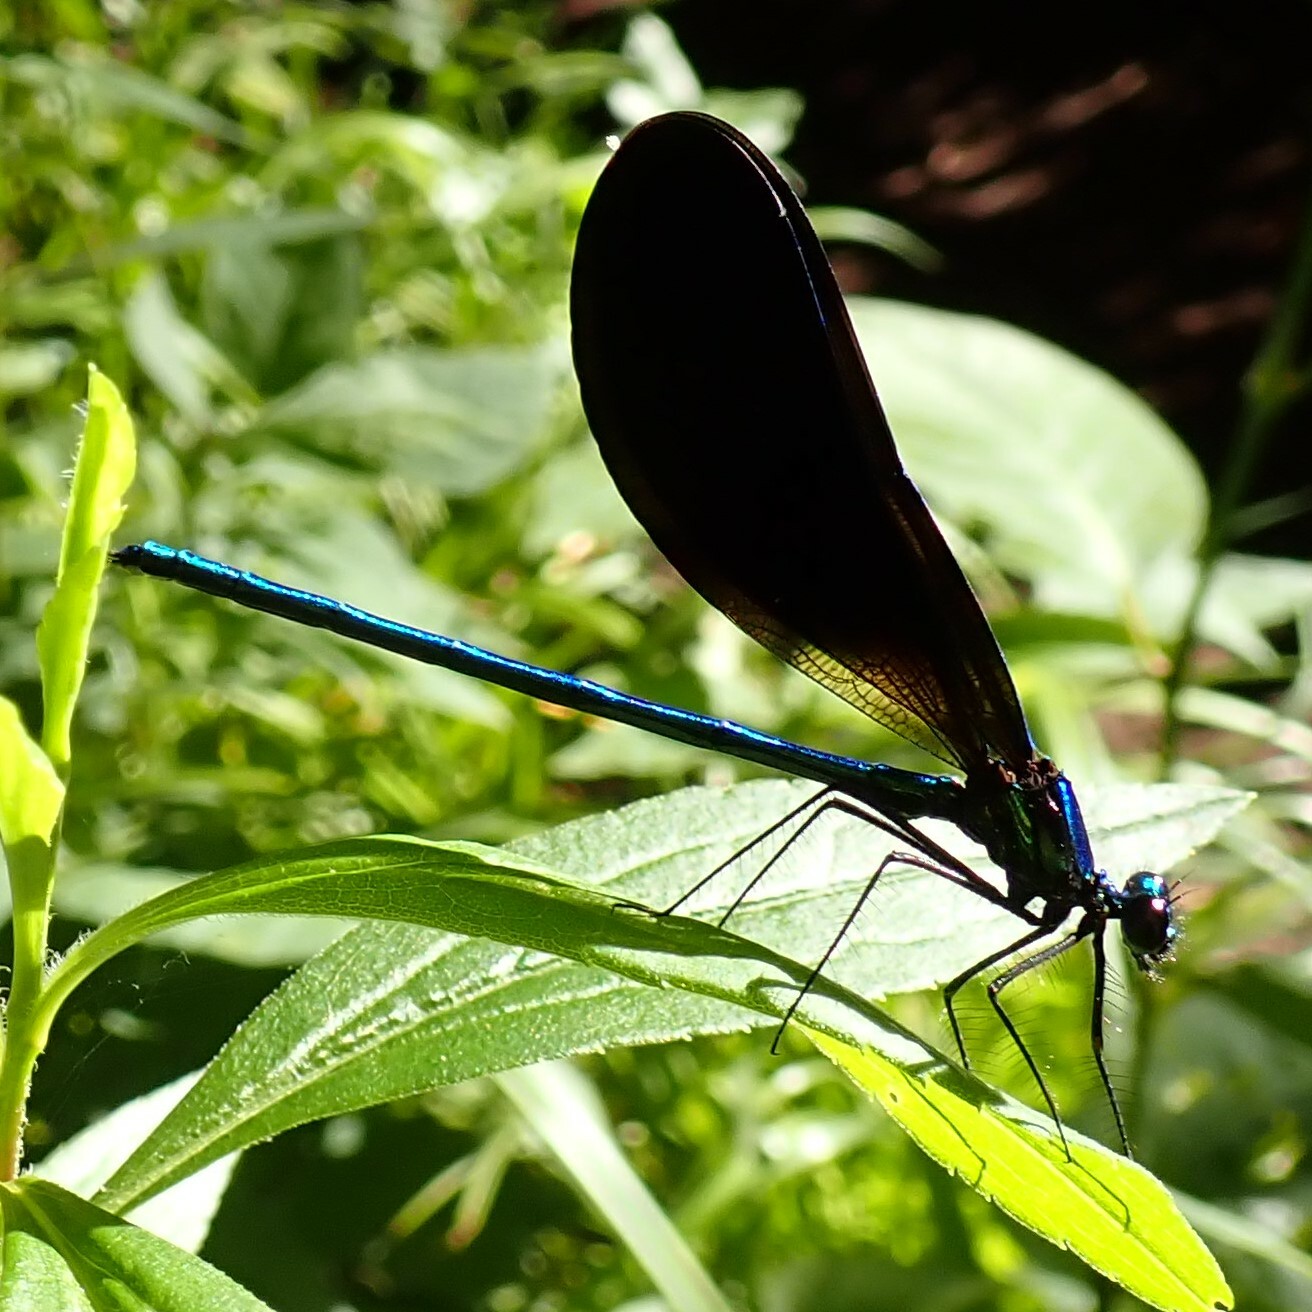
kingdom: Animalia
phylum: Arthropoda
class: Insecta
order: Odonata
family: Calopterygidae
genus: Calopteryx
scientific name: Calopteryx maculata
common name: Ebony jewelwing
